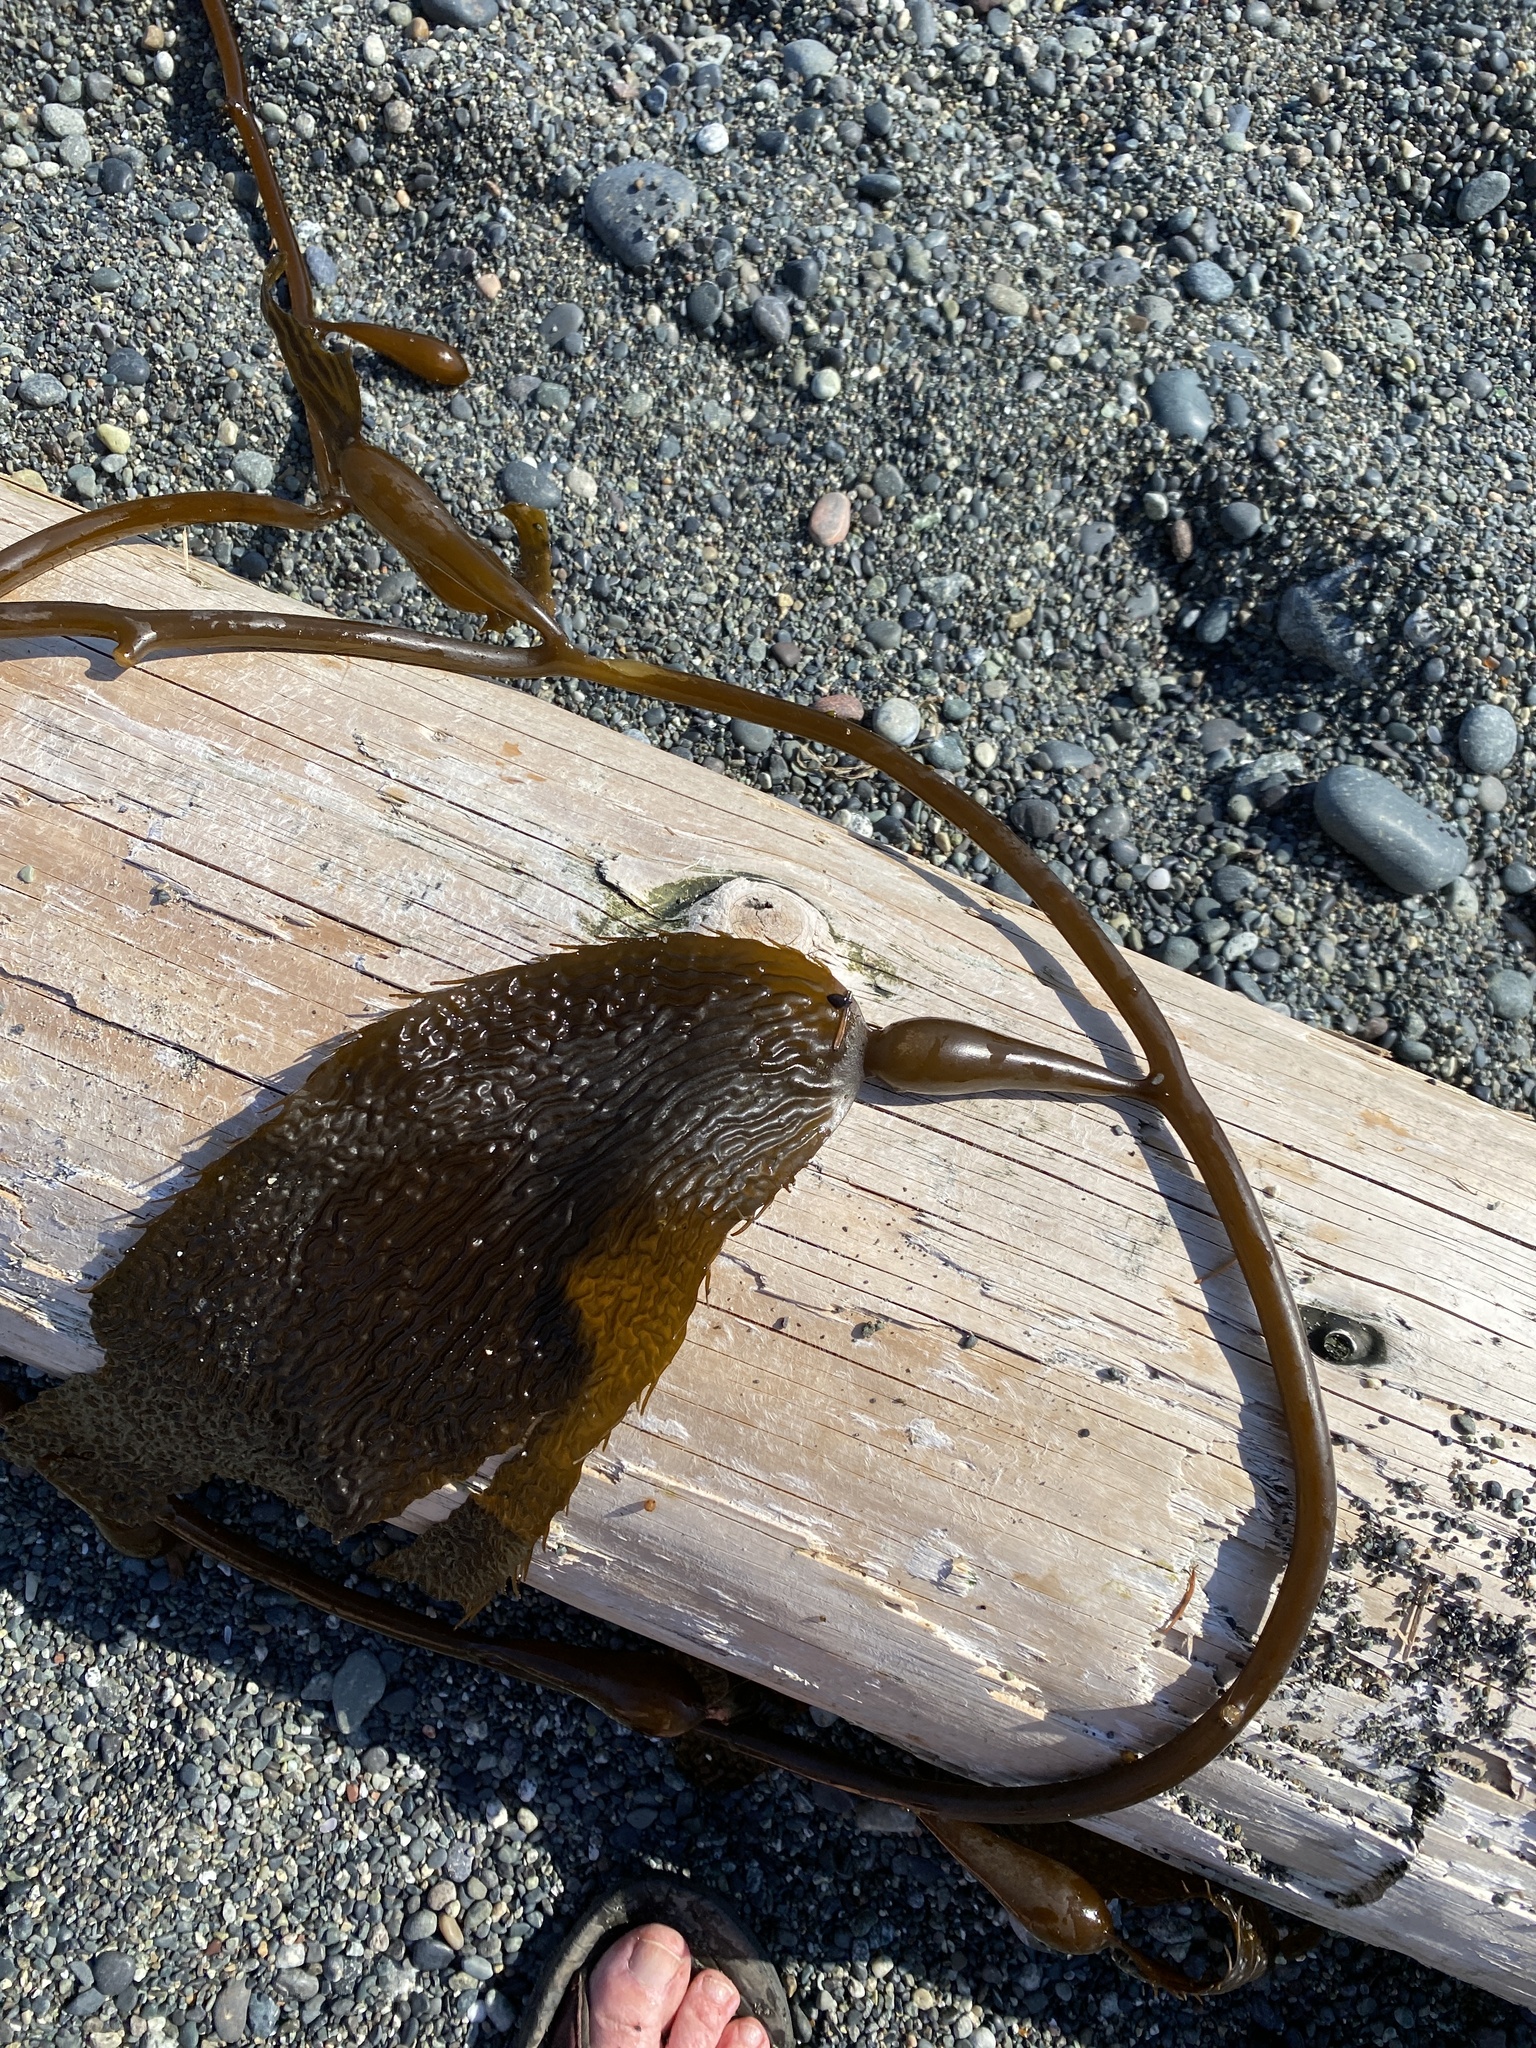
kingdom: Chromista
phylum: Ochrophyta
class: Phaeophyceae
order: Laminariales
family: Laminariaceae
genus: Macrocystis
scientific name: Macrocystis pyrifera
